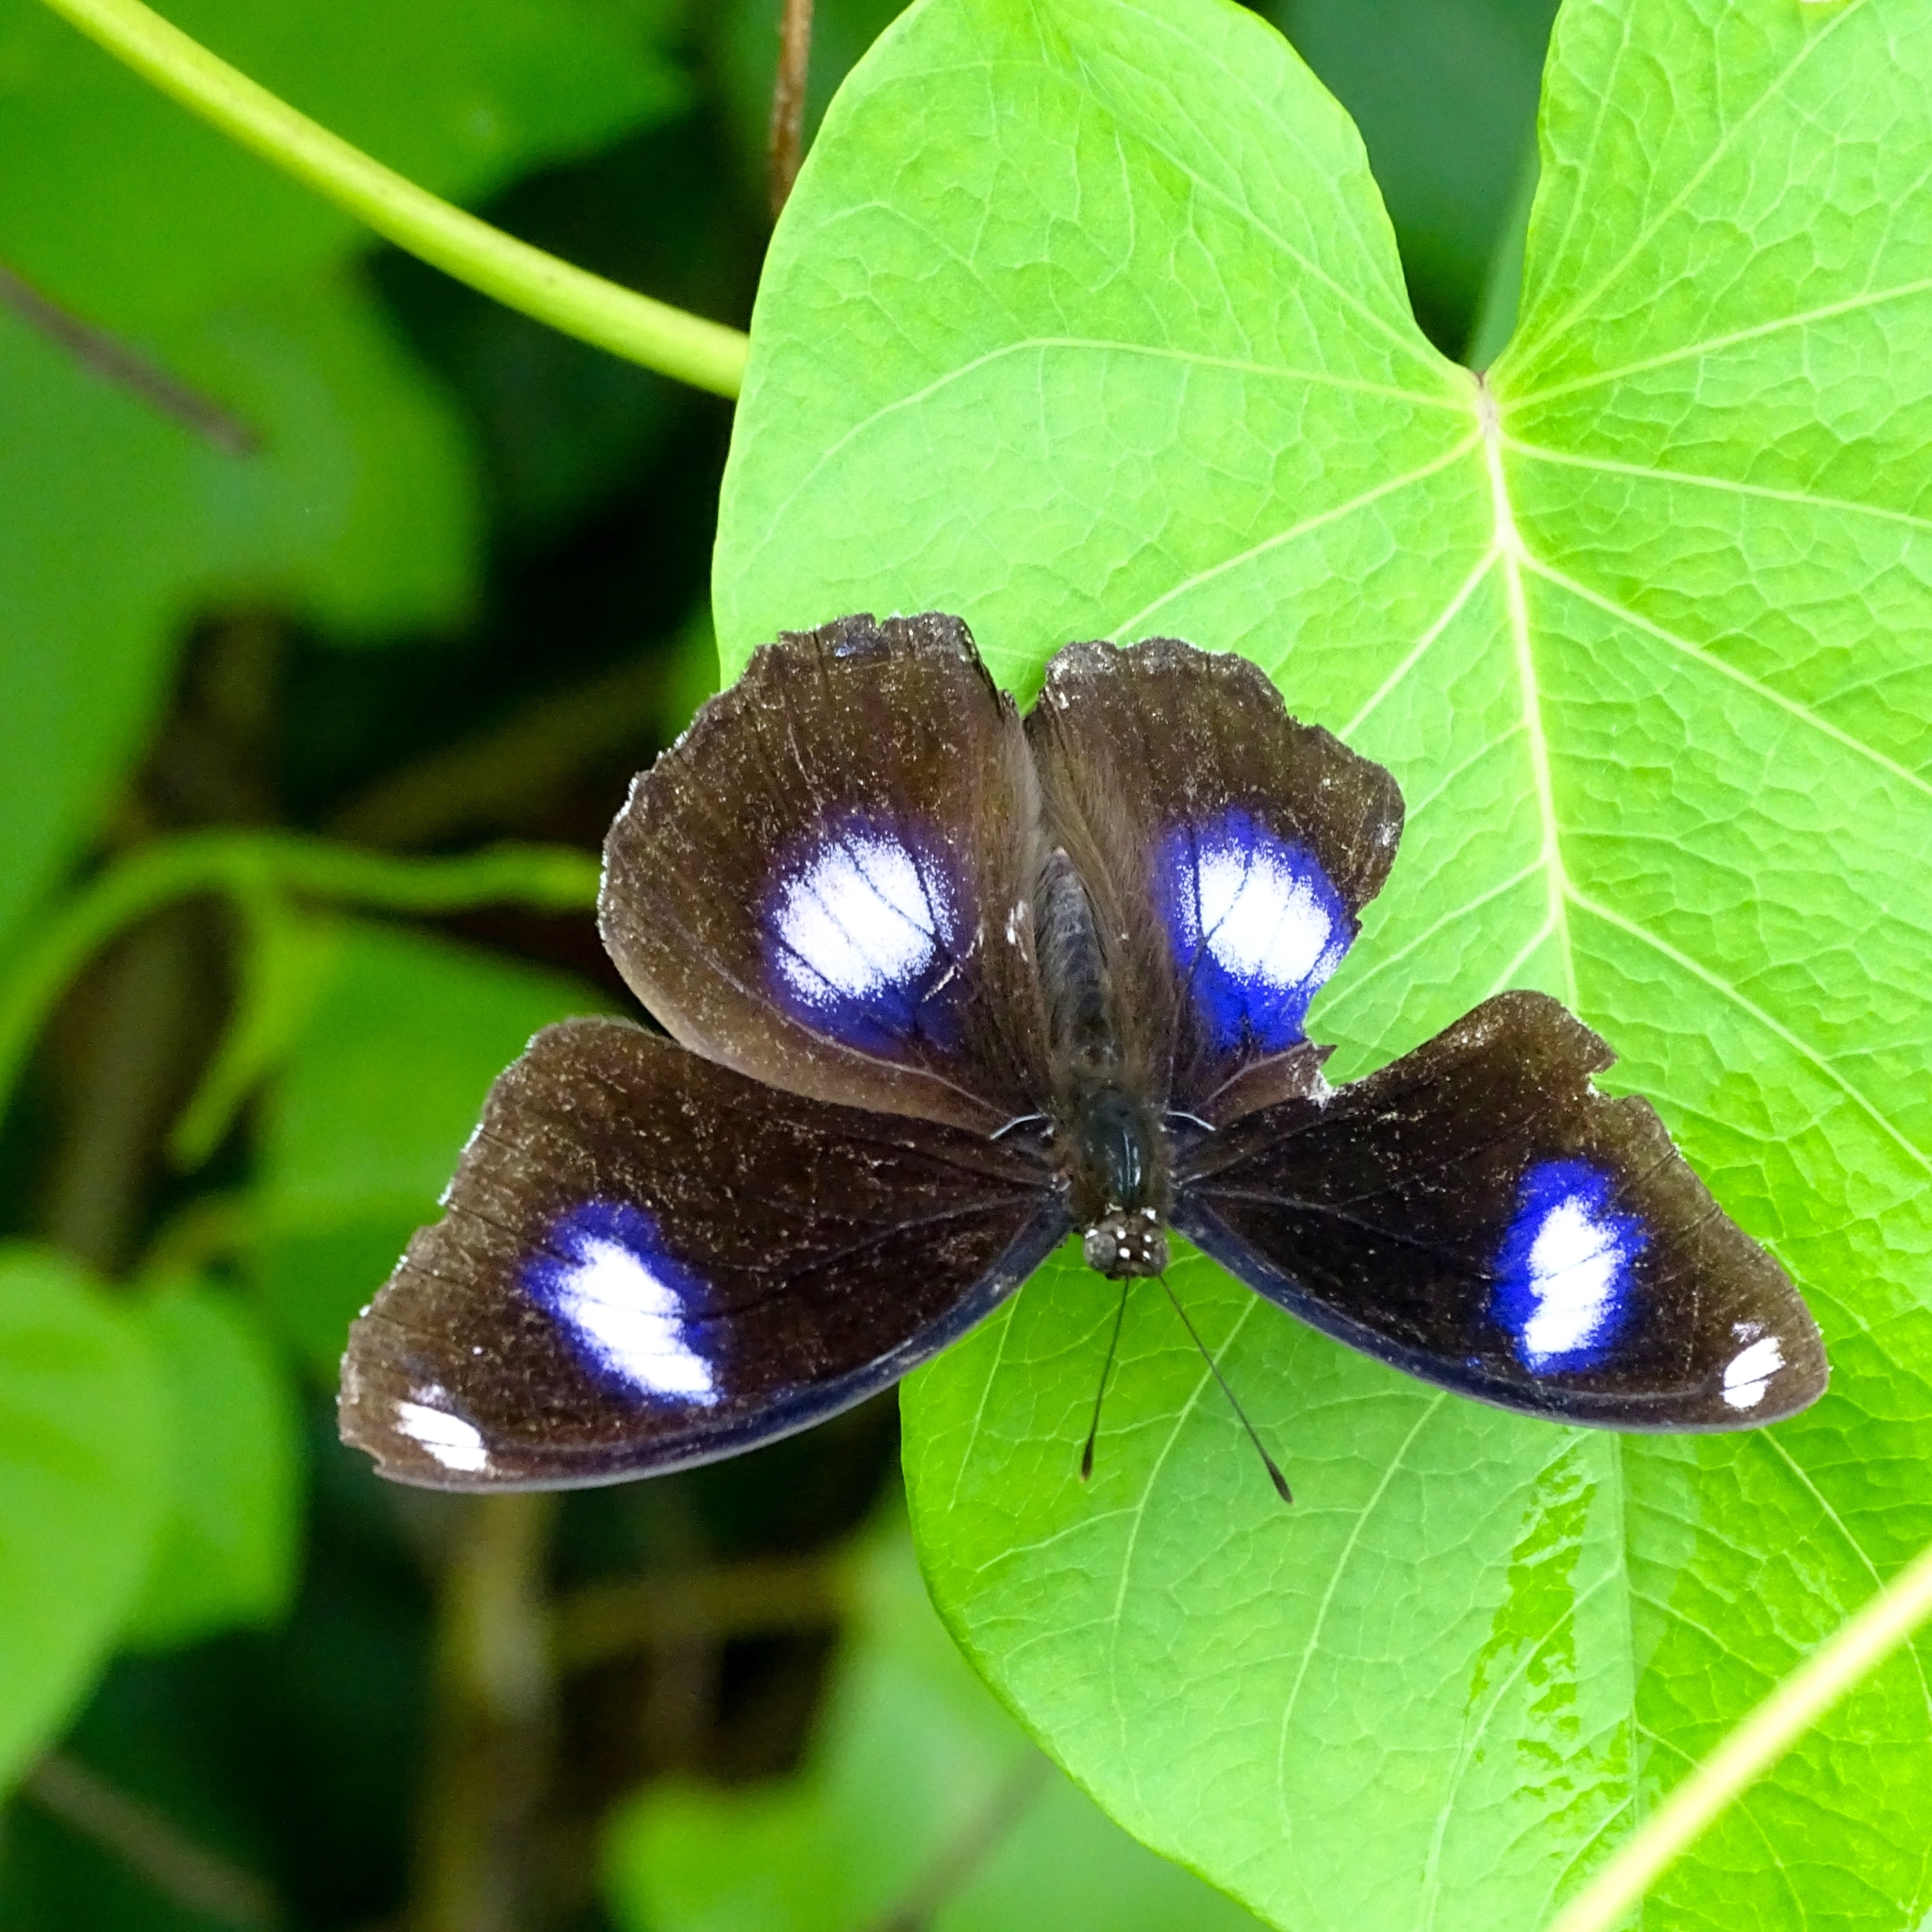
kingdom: Animalia
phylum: Arthropoda
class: Insecta
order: Lepidoptera
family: Nymphalidae
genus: Hypolimnas
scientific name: Hypolimnas bolina
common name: Great eggfly
